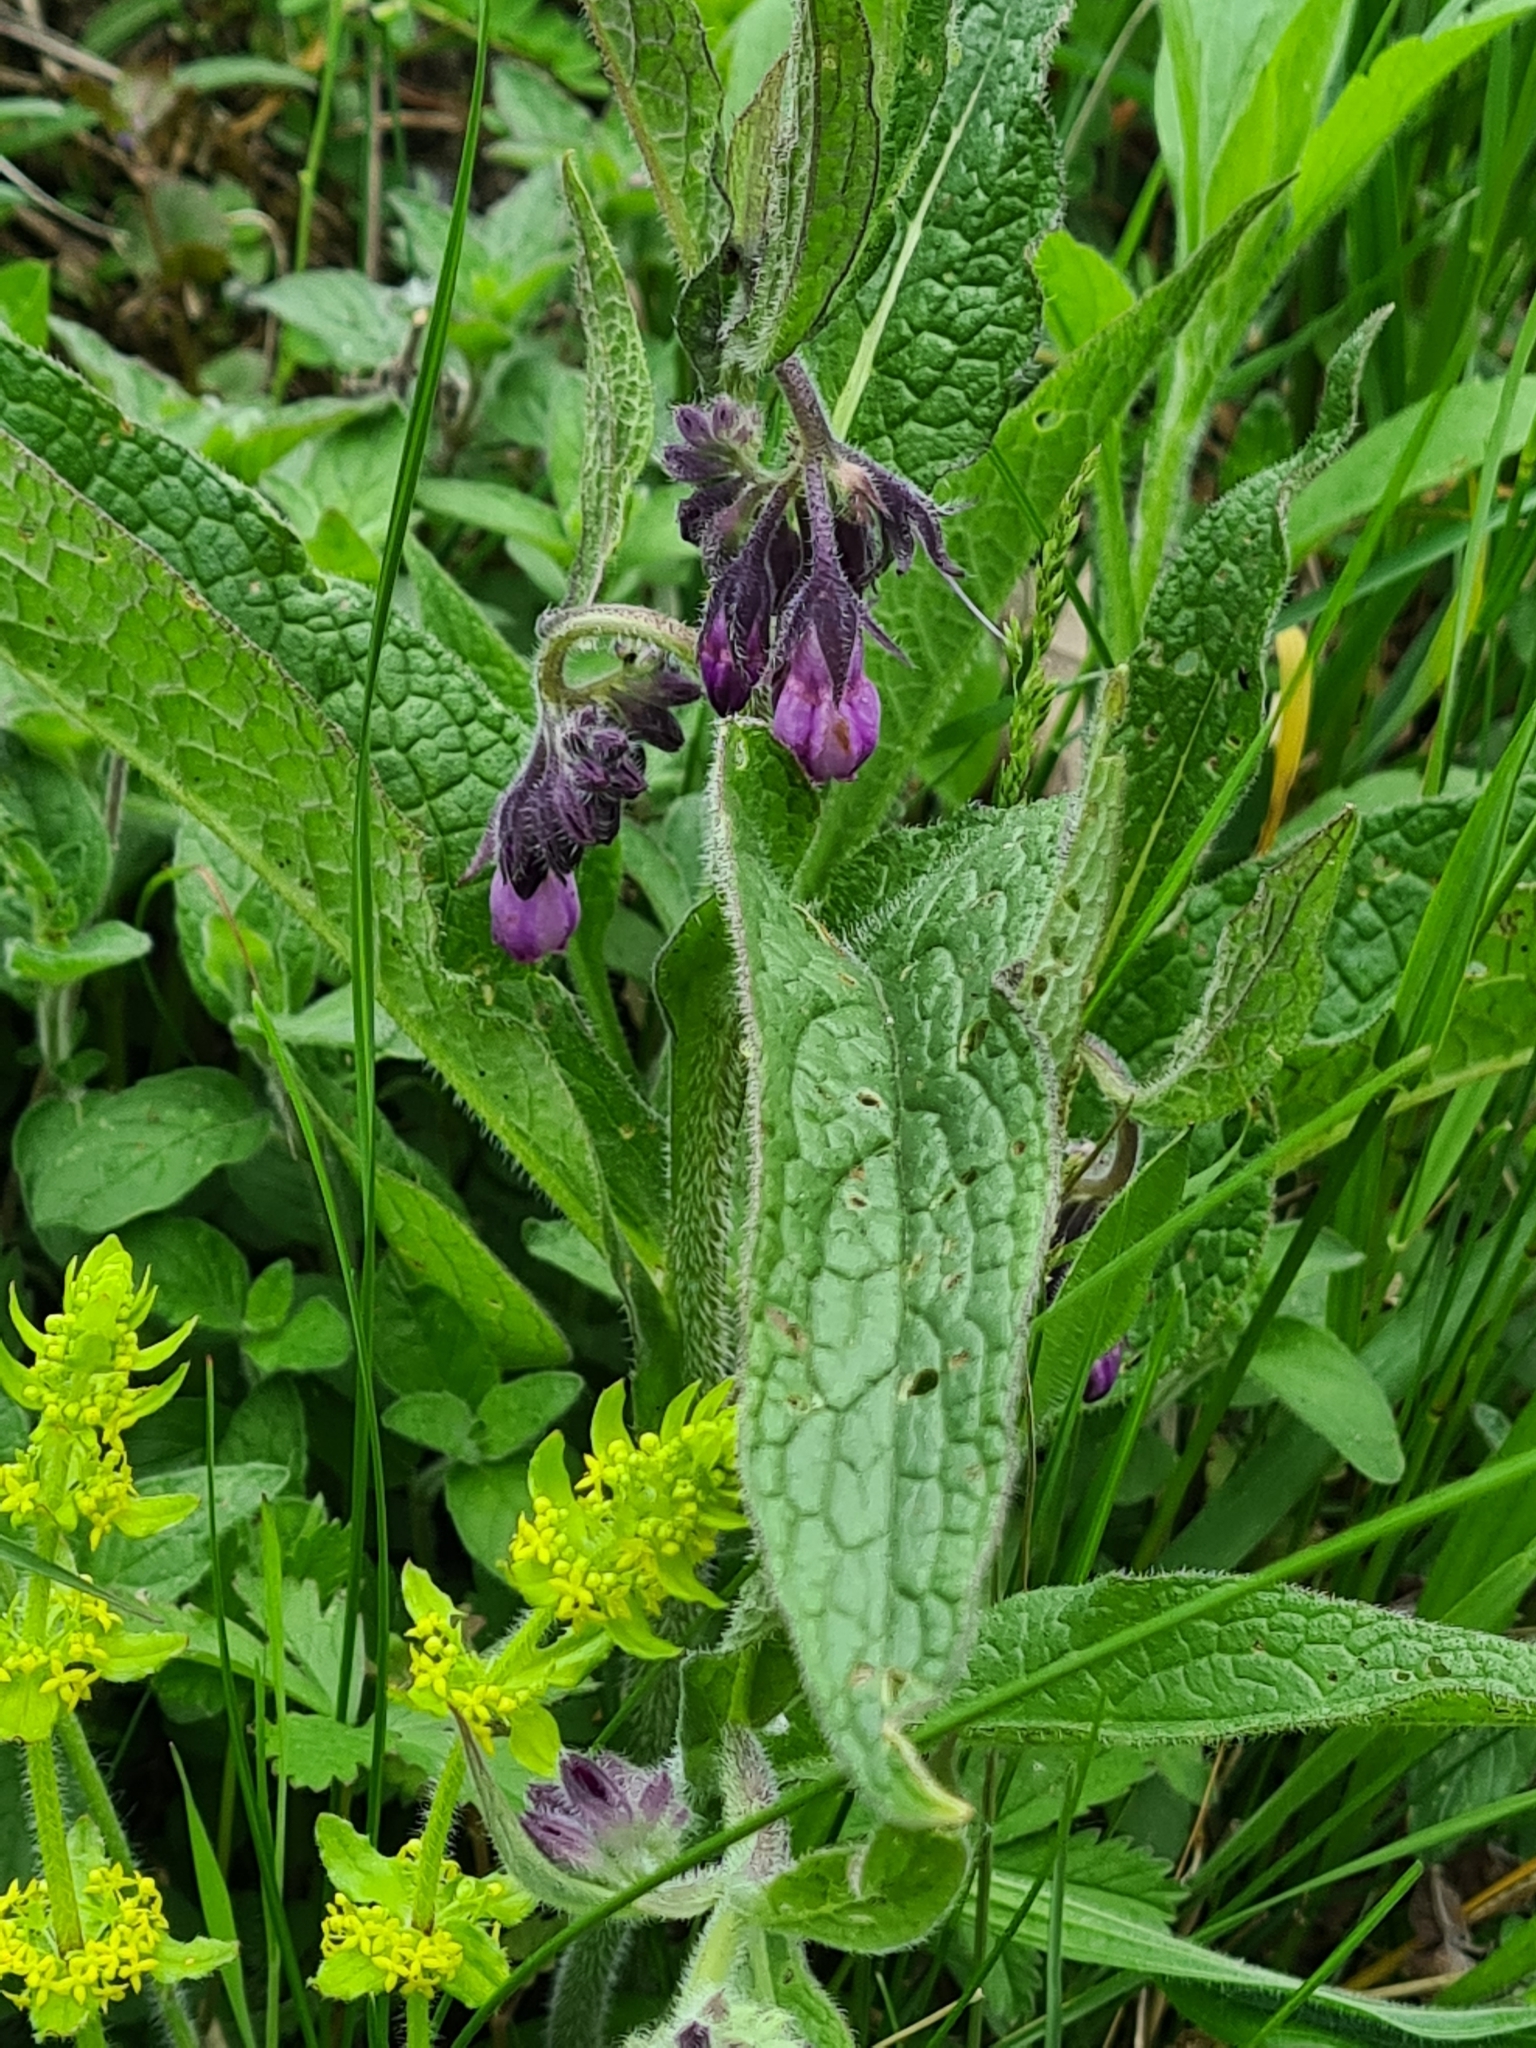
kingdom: Plantae
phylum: Tracheophyta
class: Magnoliopsida
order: Boraginales
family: Boraginaceae
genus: Symphytum
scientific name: Symphytum officinale
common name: Common comfrey
